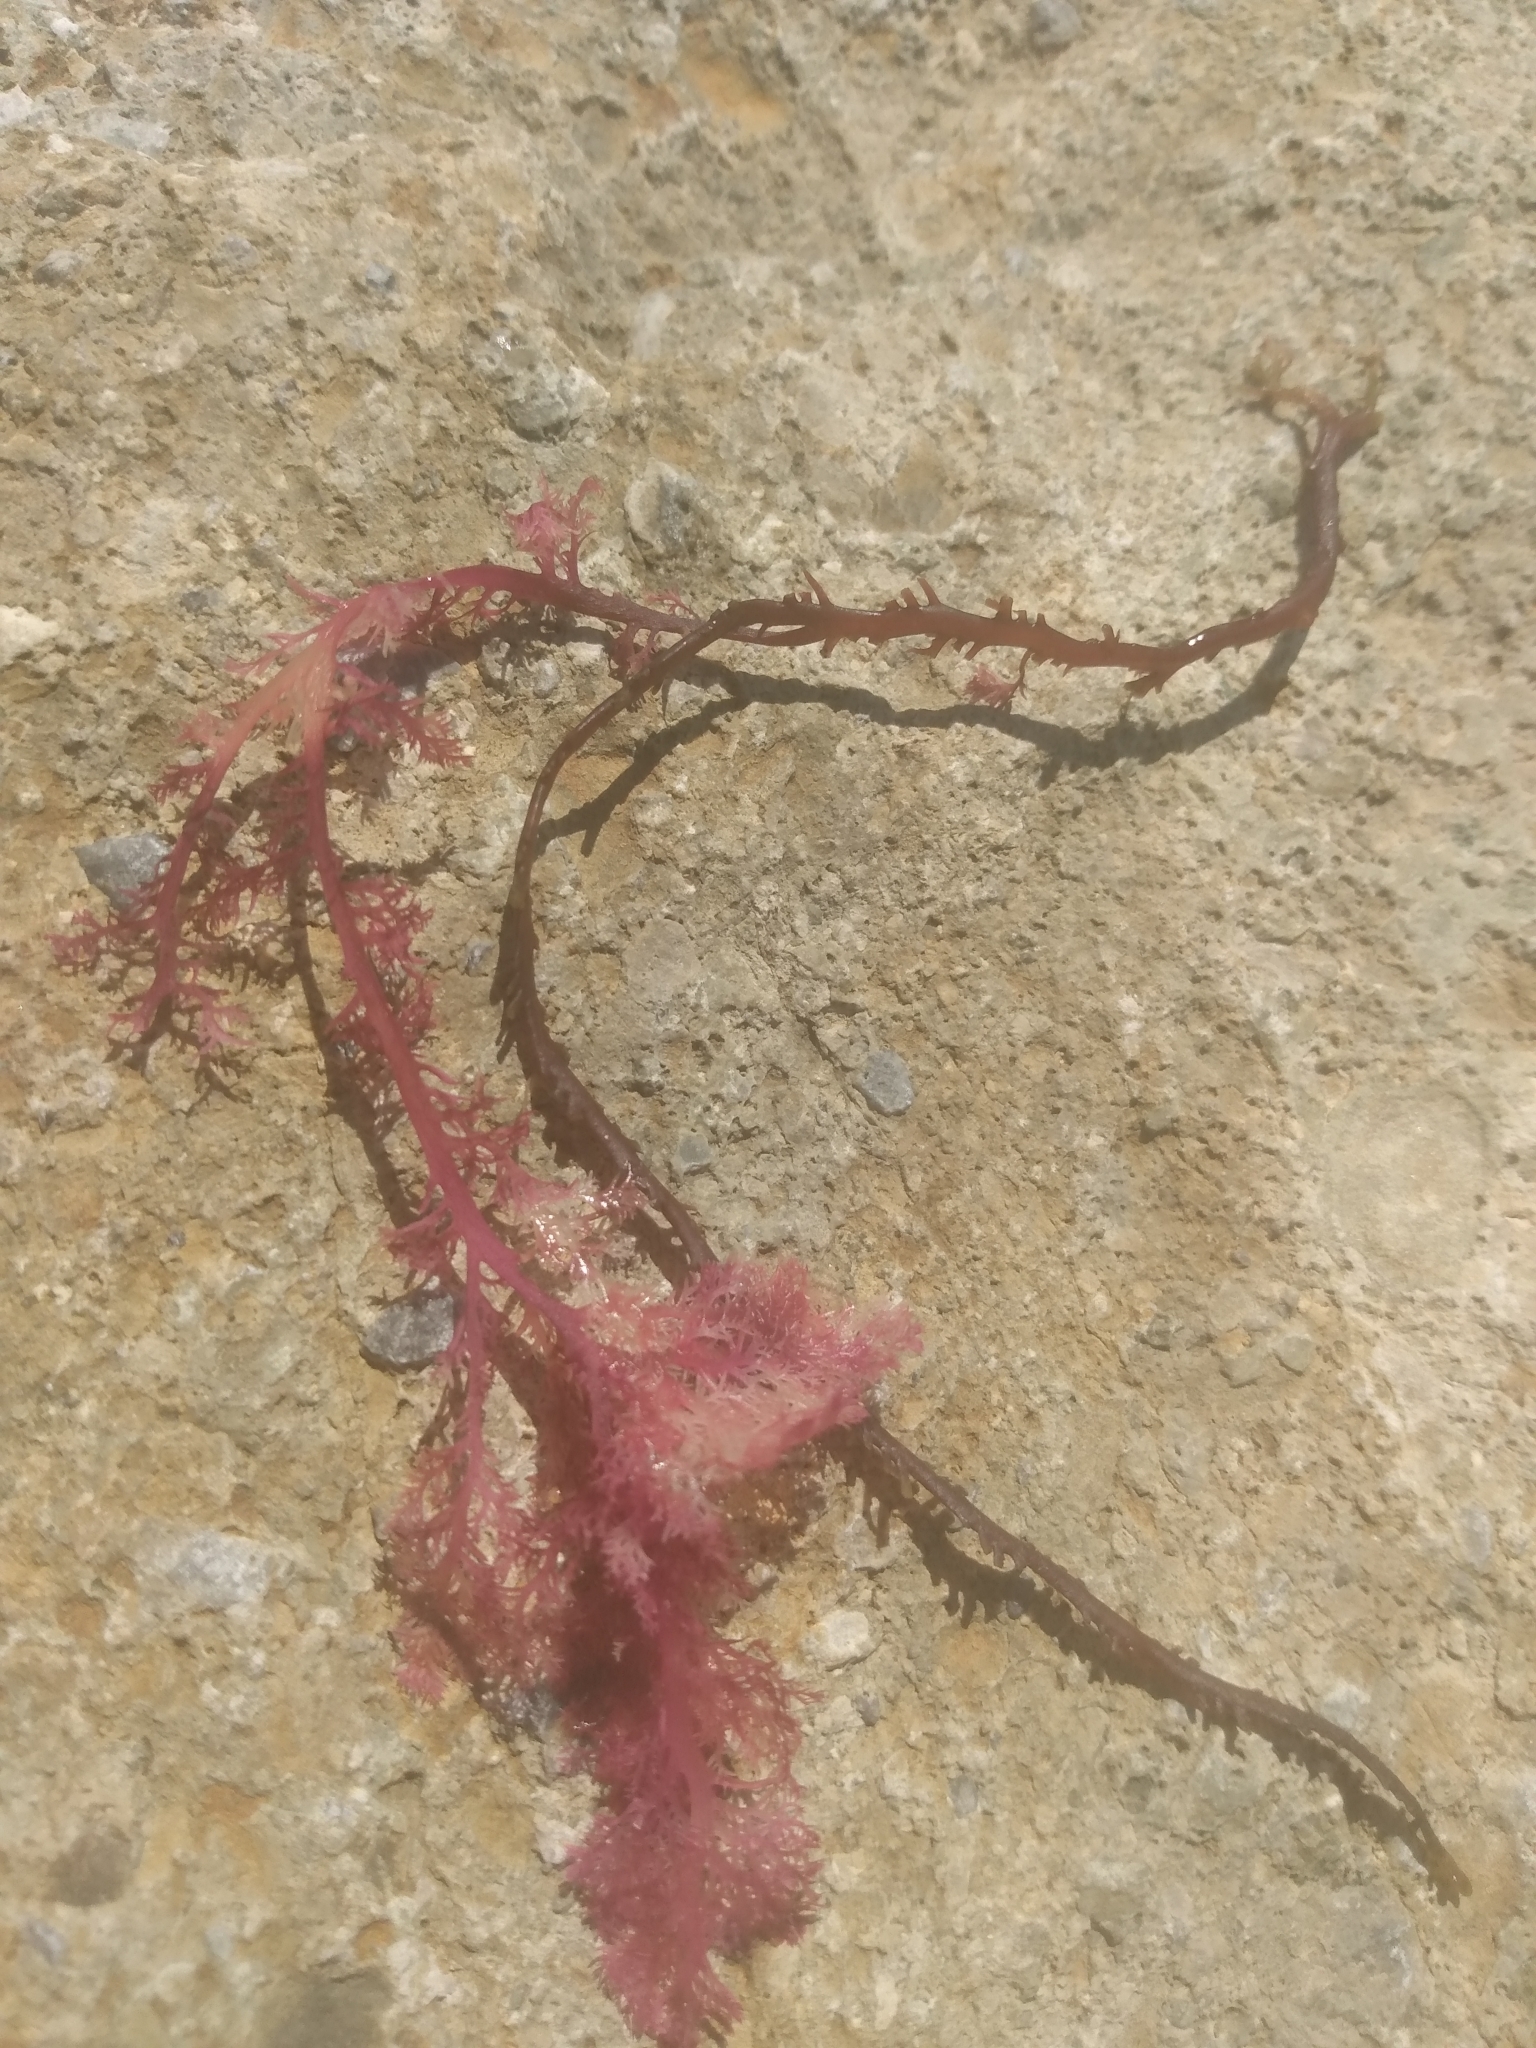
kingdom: Plantae
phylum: Rhodophyta
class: Florideophyceae
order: Plocamiales
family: Plocamiaceae
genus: Plocamium
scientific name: Plocamium cartilagineum
